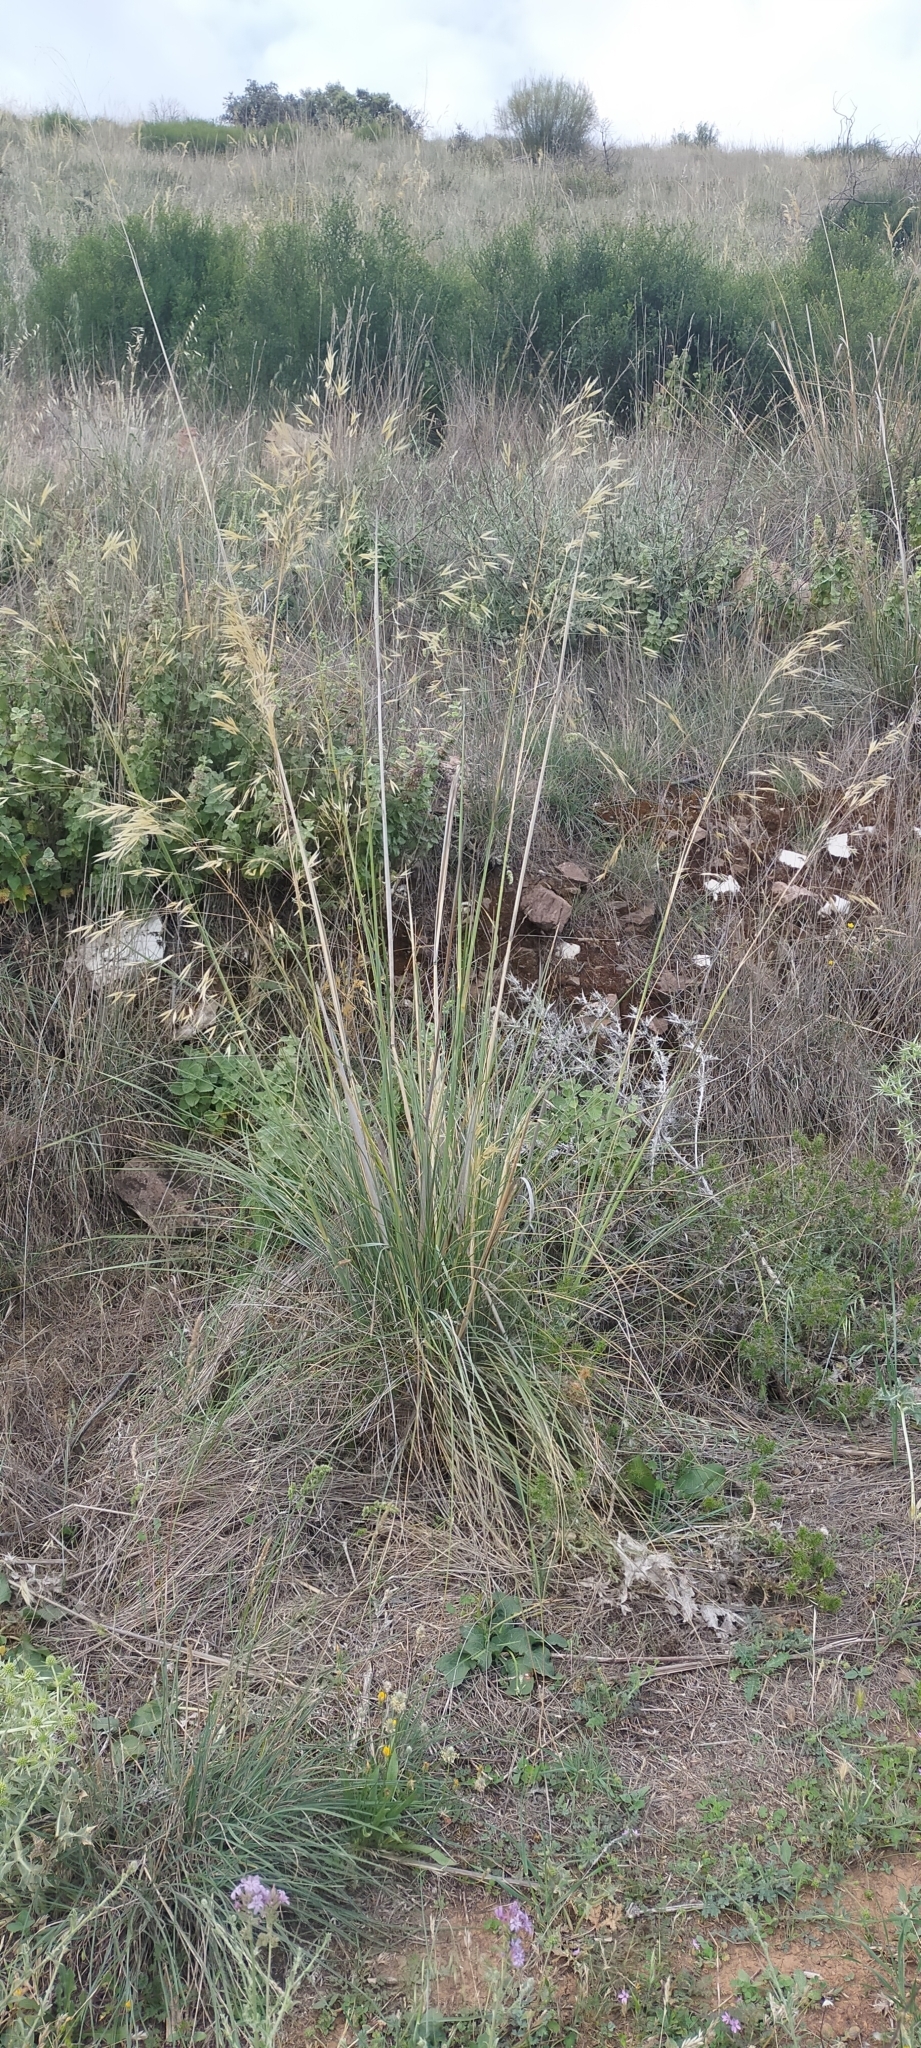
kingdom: Plantae
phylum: Tracheophyta
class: Liliopsida
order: Poales
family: Poaceae
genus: Celtica
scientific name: Celtica gigantea
